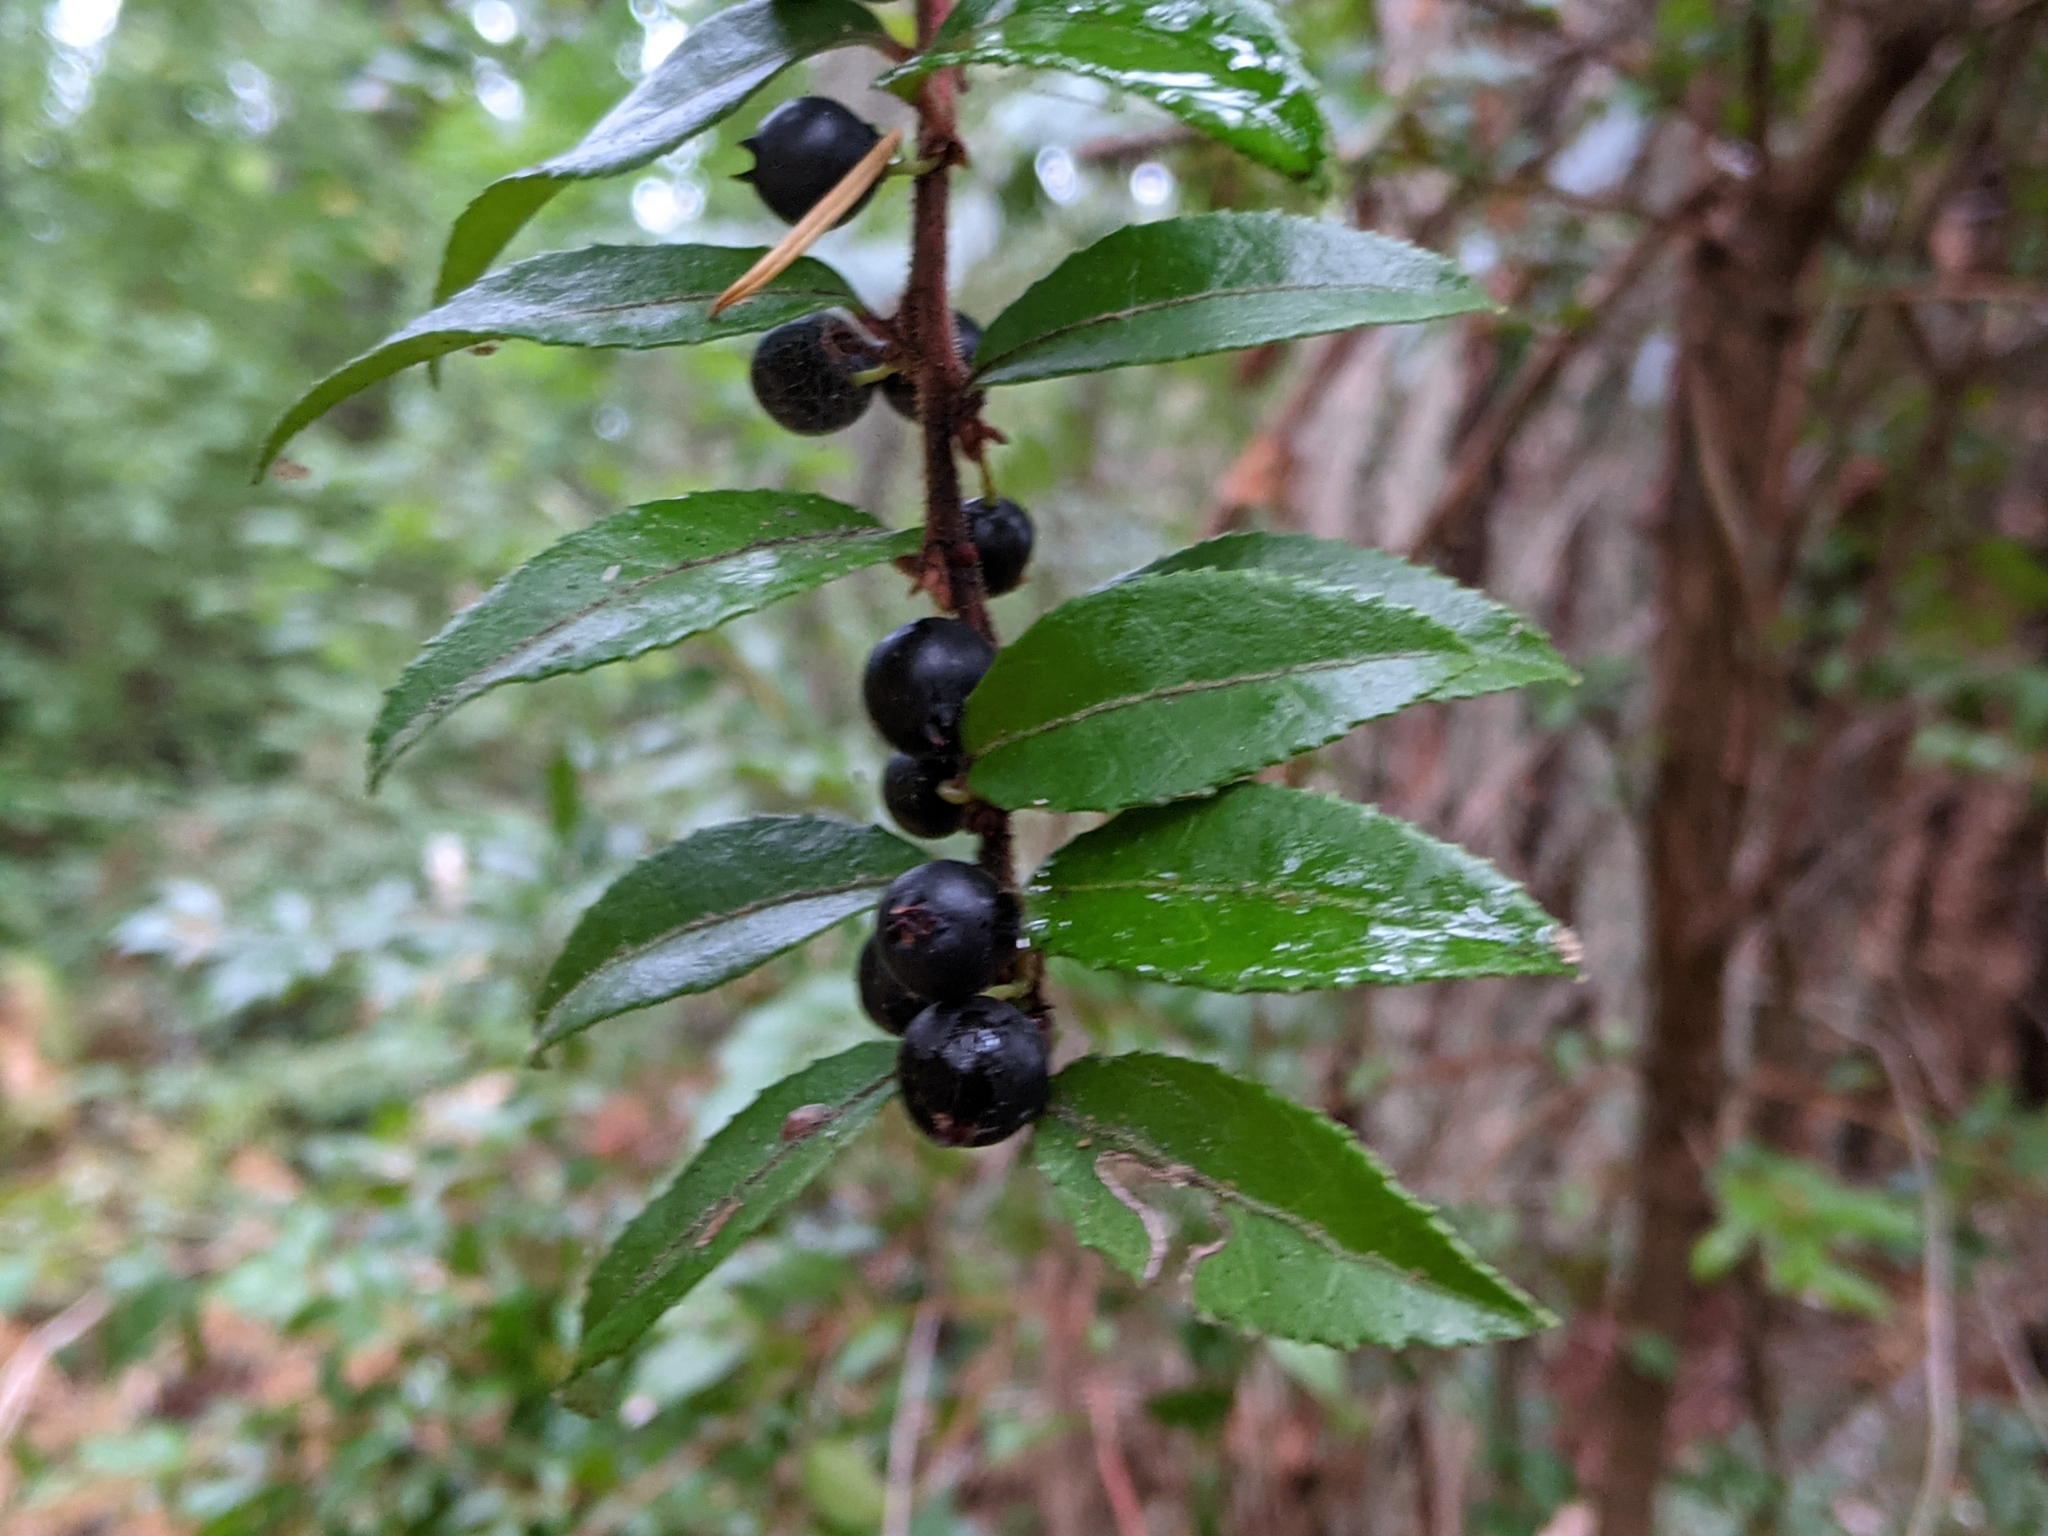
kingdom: Plantae
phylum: Tracheophyta
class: Magnoliopsida
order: Ericales
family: Ericaceae
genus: Vaccinium
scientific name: Vaccinium ovatum
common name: California-huckleberry
